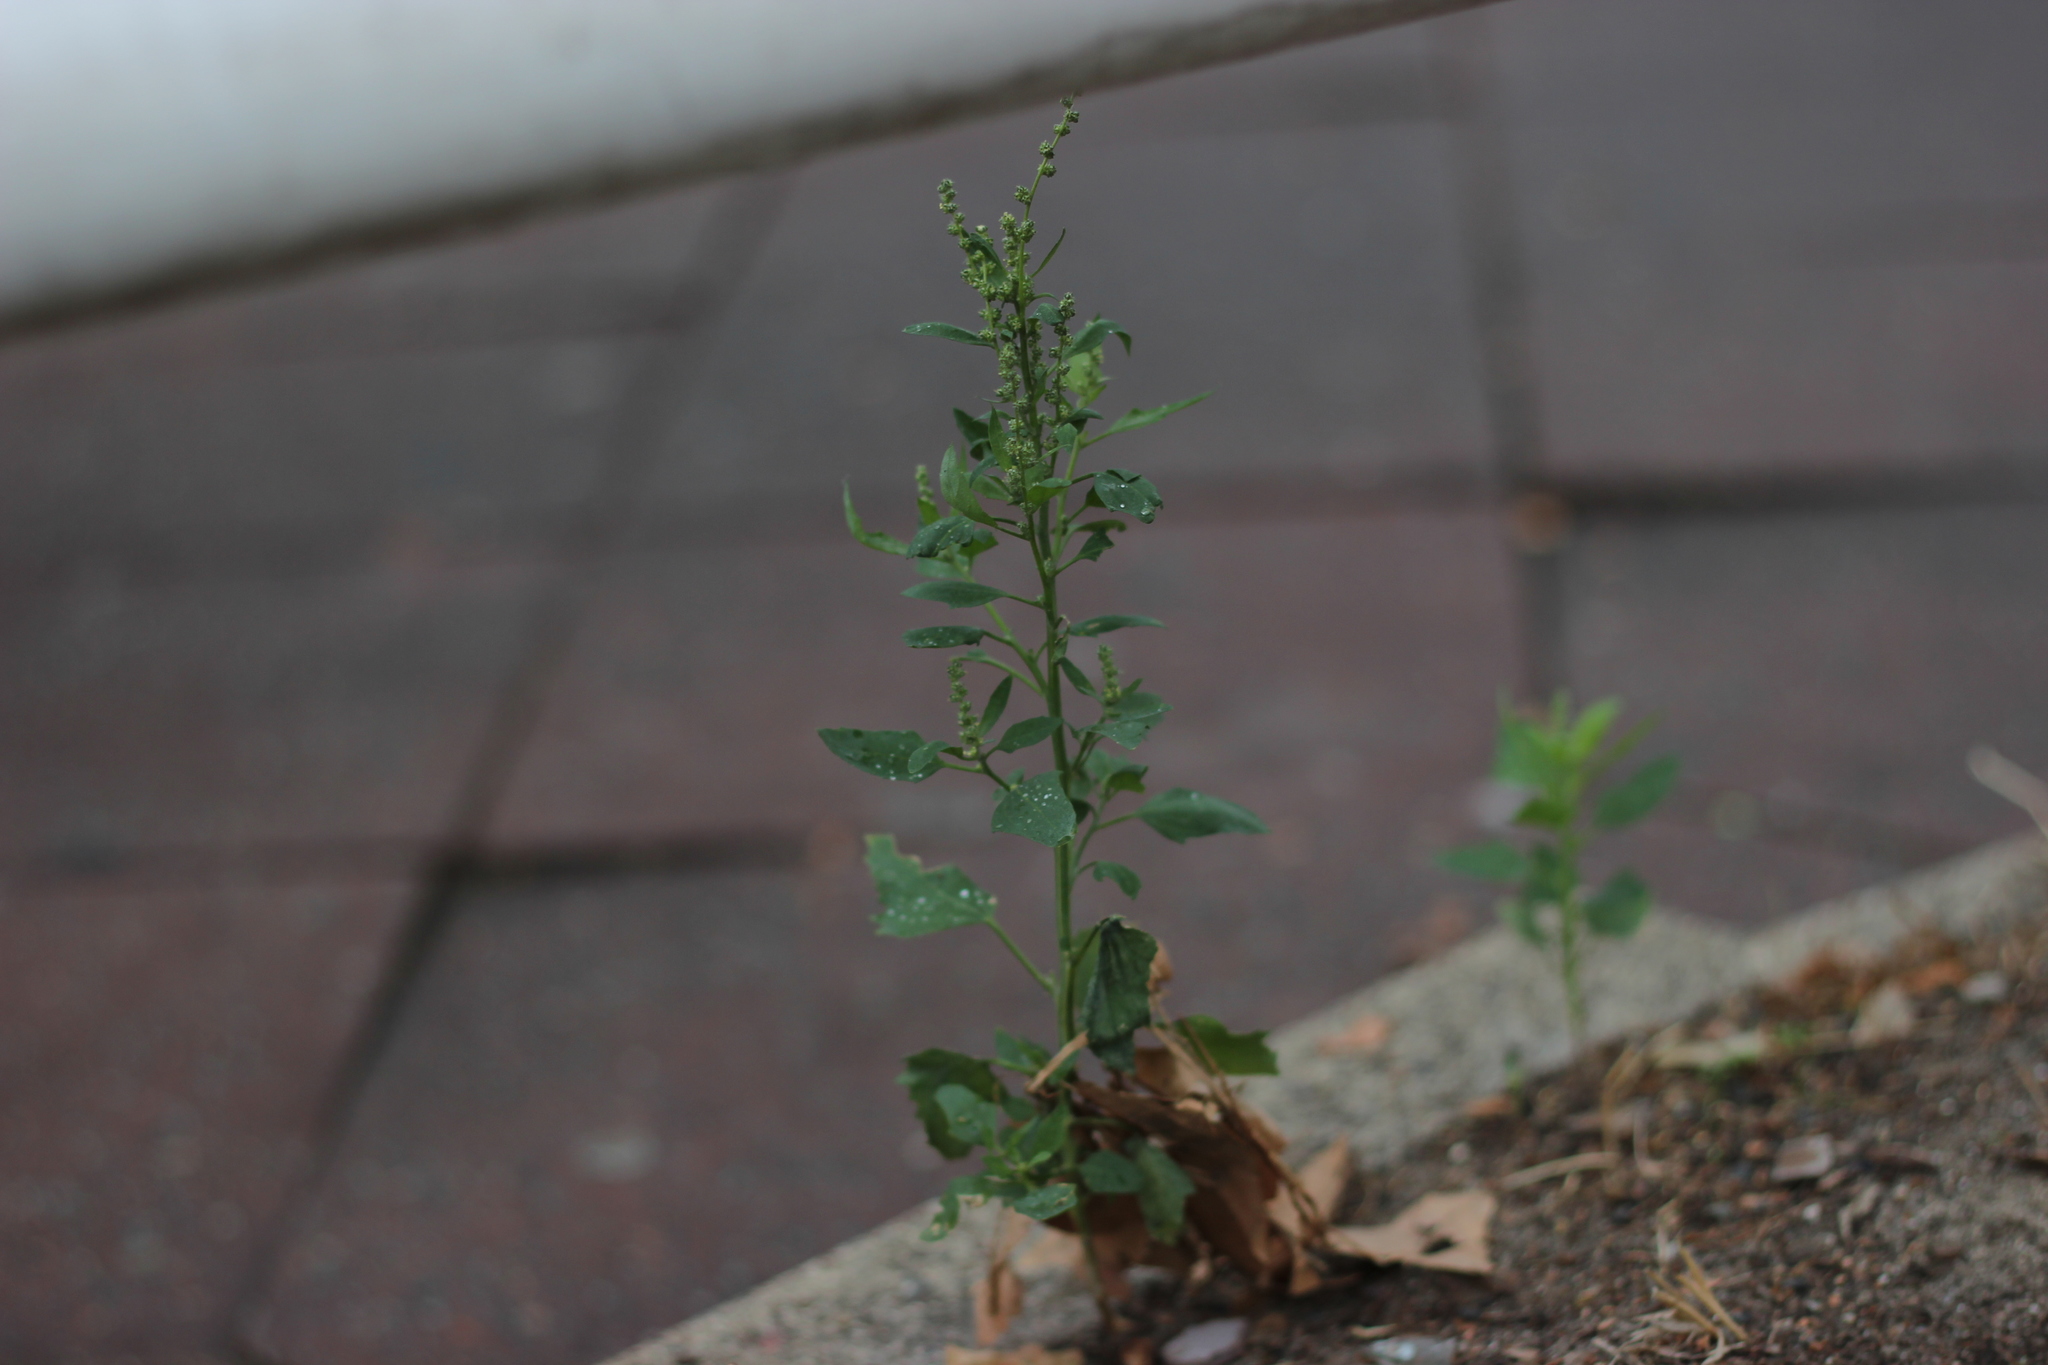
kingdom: Plantae
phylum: Tracheophyta
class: Magnoliopsida
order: Caryophyllales
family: Amaranthaceae
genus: Chenopodium
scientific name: Chenopodium album
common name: Fat-hen
